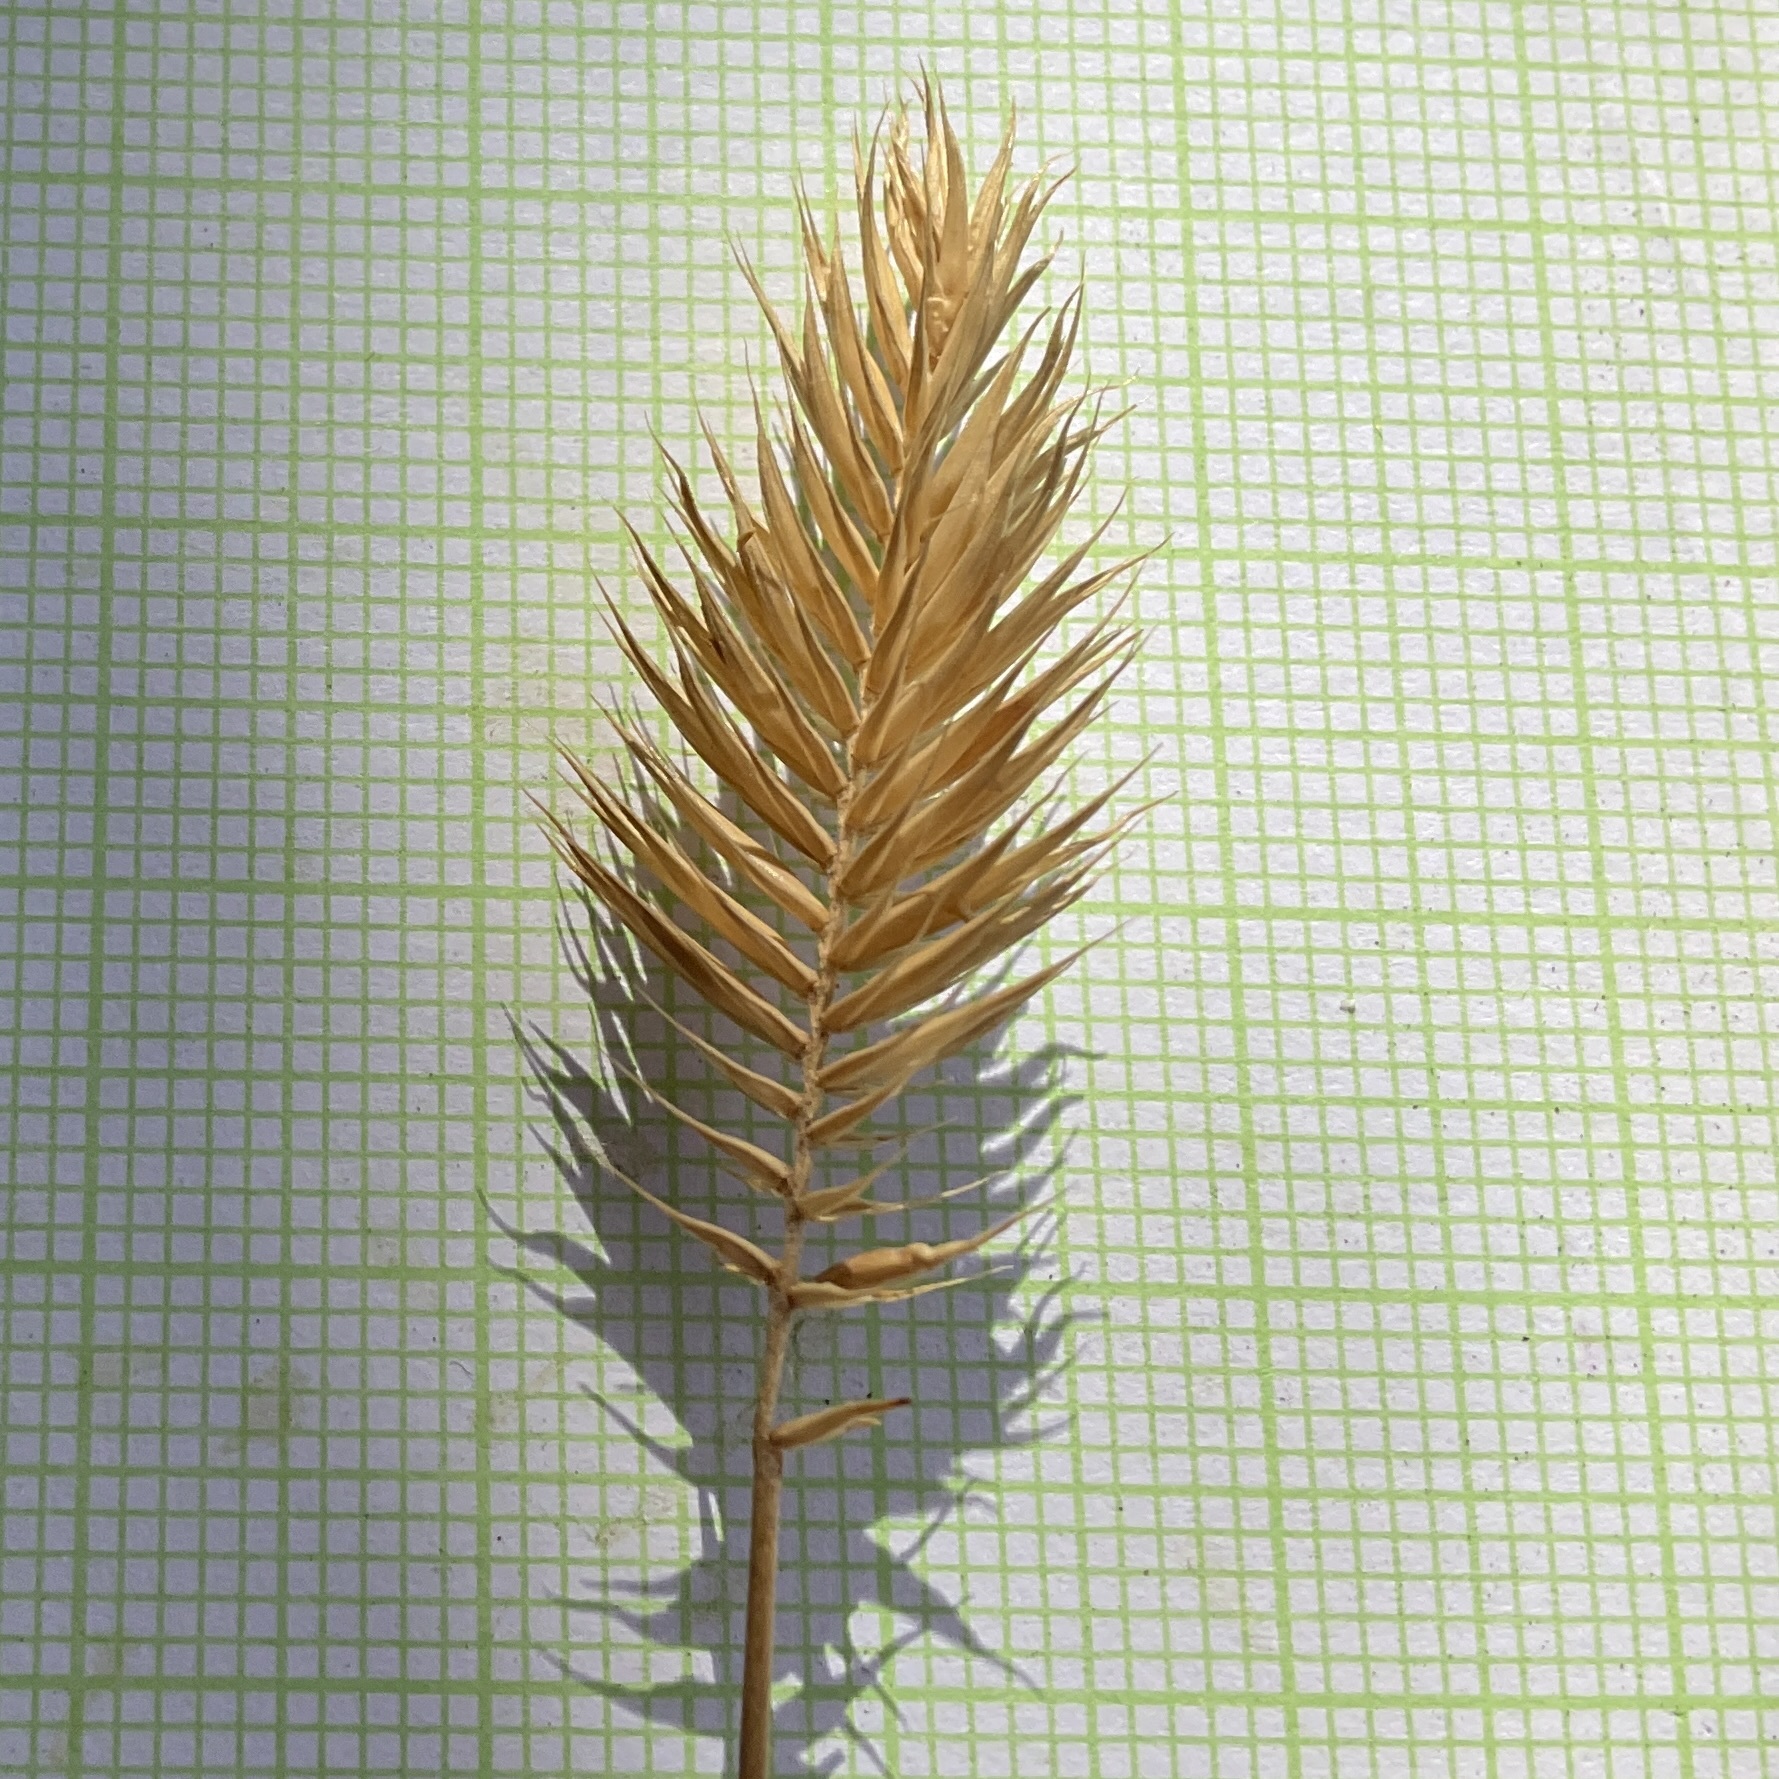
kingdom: Plantae
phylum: Tracheophyta
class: Liliopsida
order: Poales
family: Poaceae
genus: Agropyron
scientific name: Agropyron cristatum
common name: Crested wheatgrass
